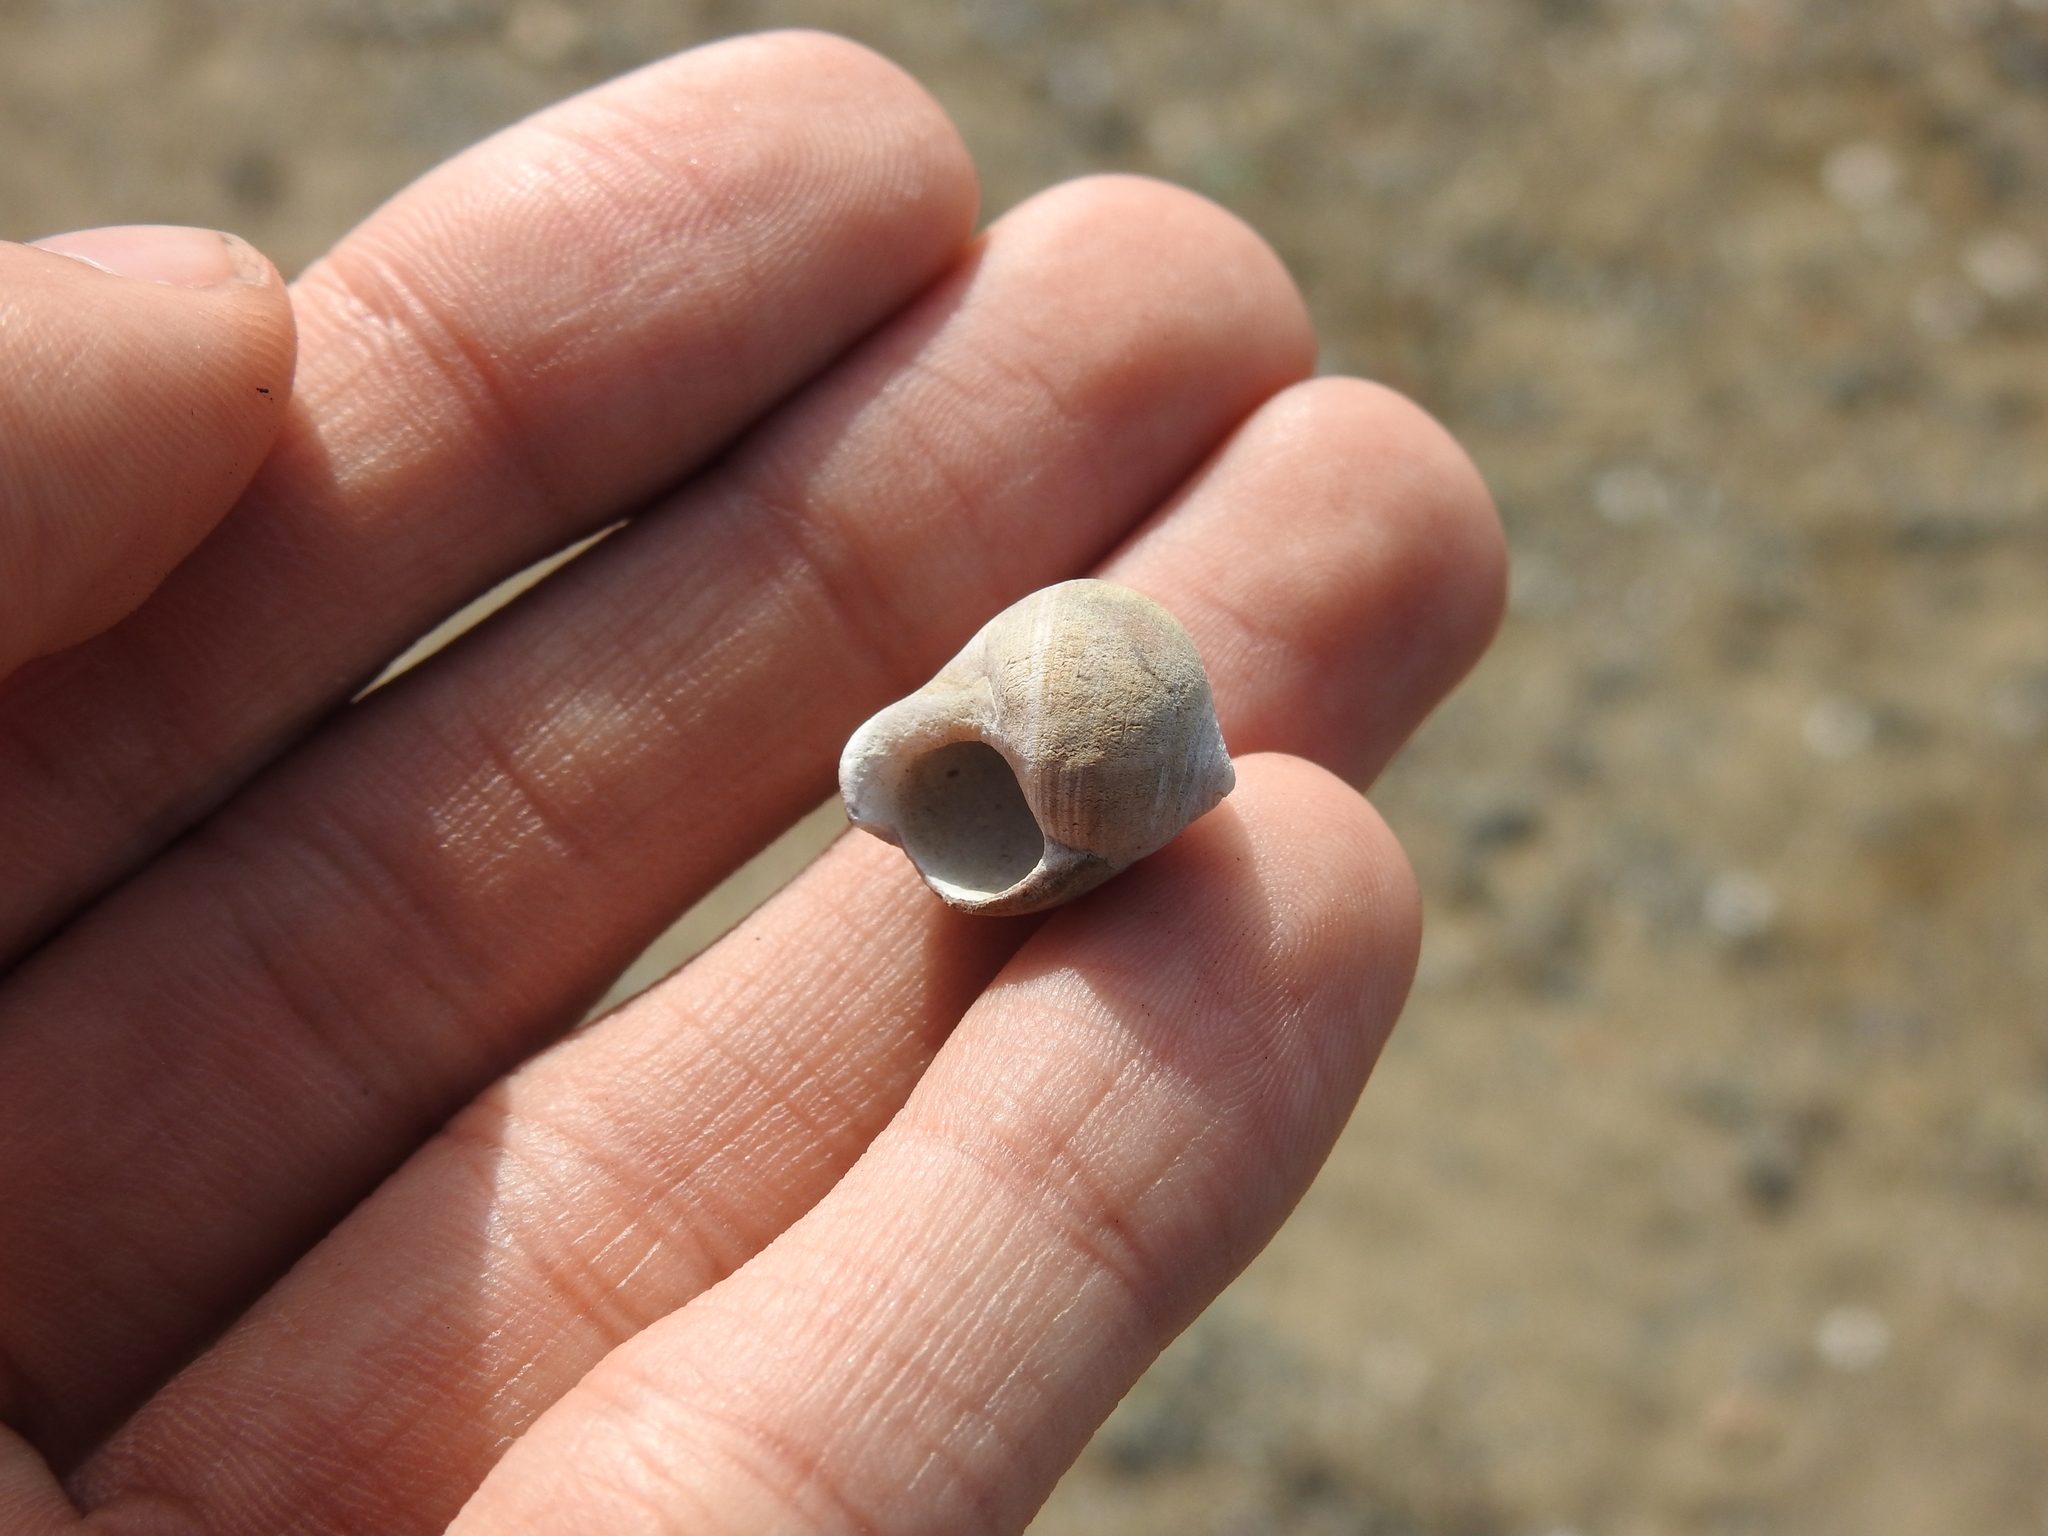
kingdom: Animalia
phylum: Mollusca
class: Gastropoda
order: Littorinimorpha
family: Littorinidae
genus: Littorina
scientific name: Littorina littorea
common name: Common periwinkle
